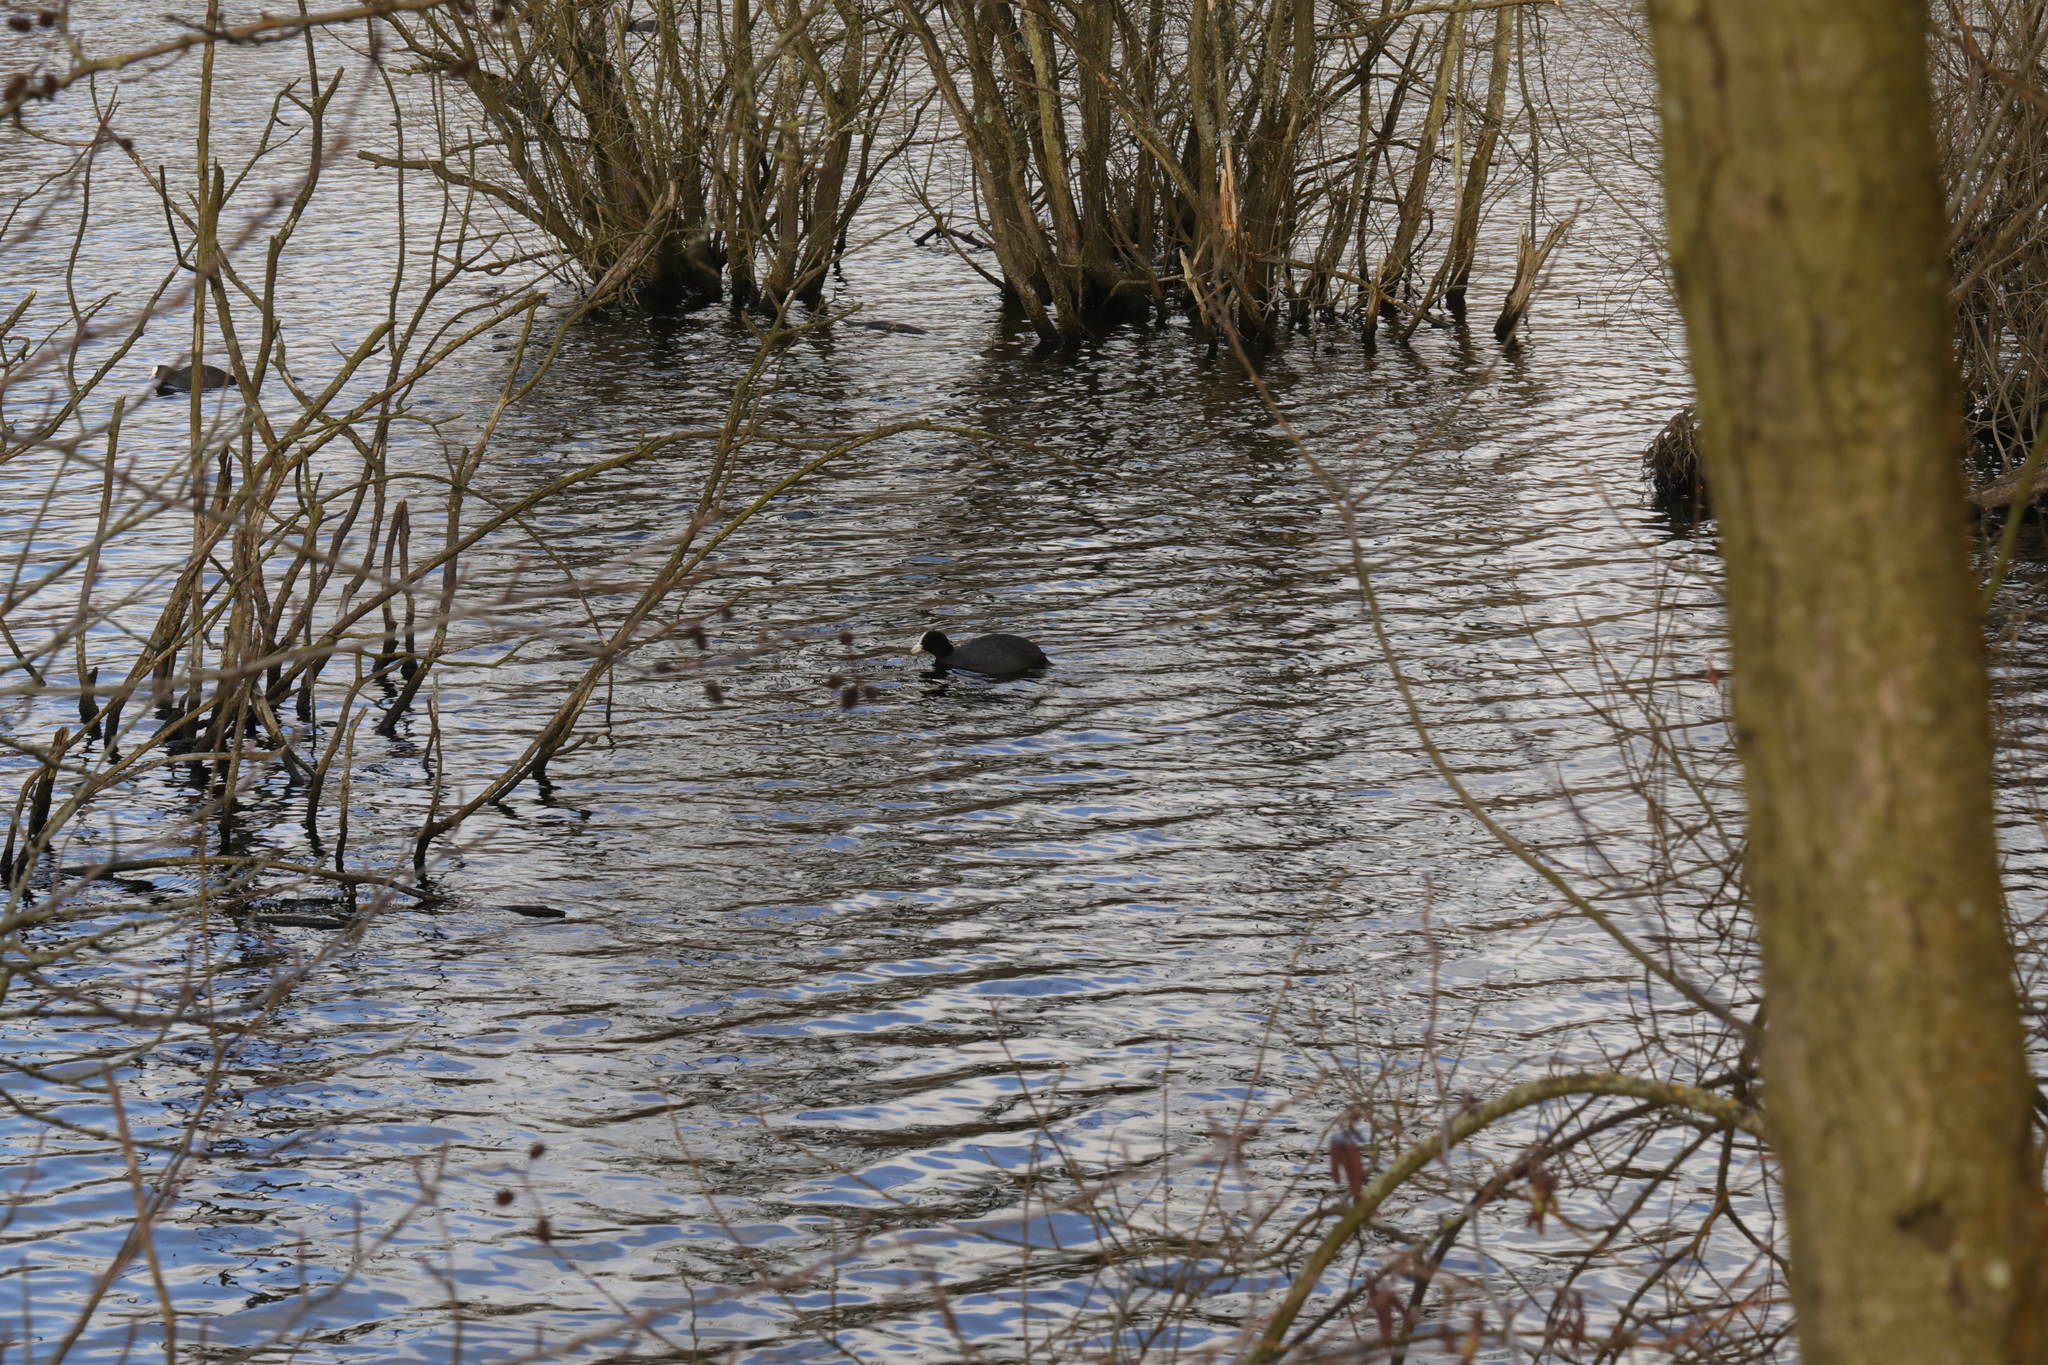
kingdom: Animalia
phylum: Chordata
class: Aves
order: Gruiformes
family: Rallidae
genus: Fulica
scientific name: Fulica atra
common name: Eurasian coot
